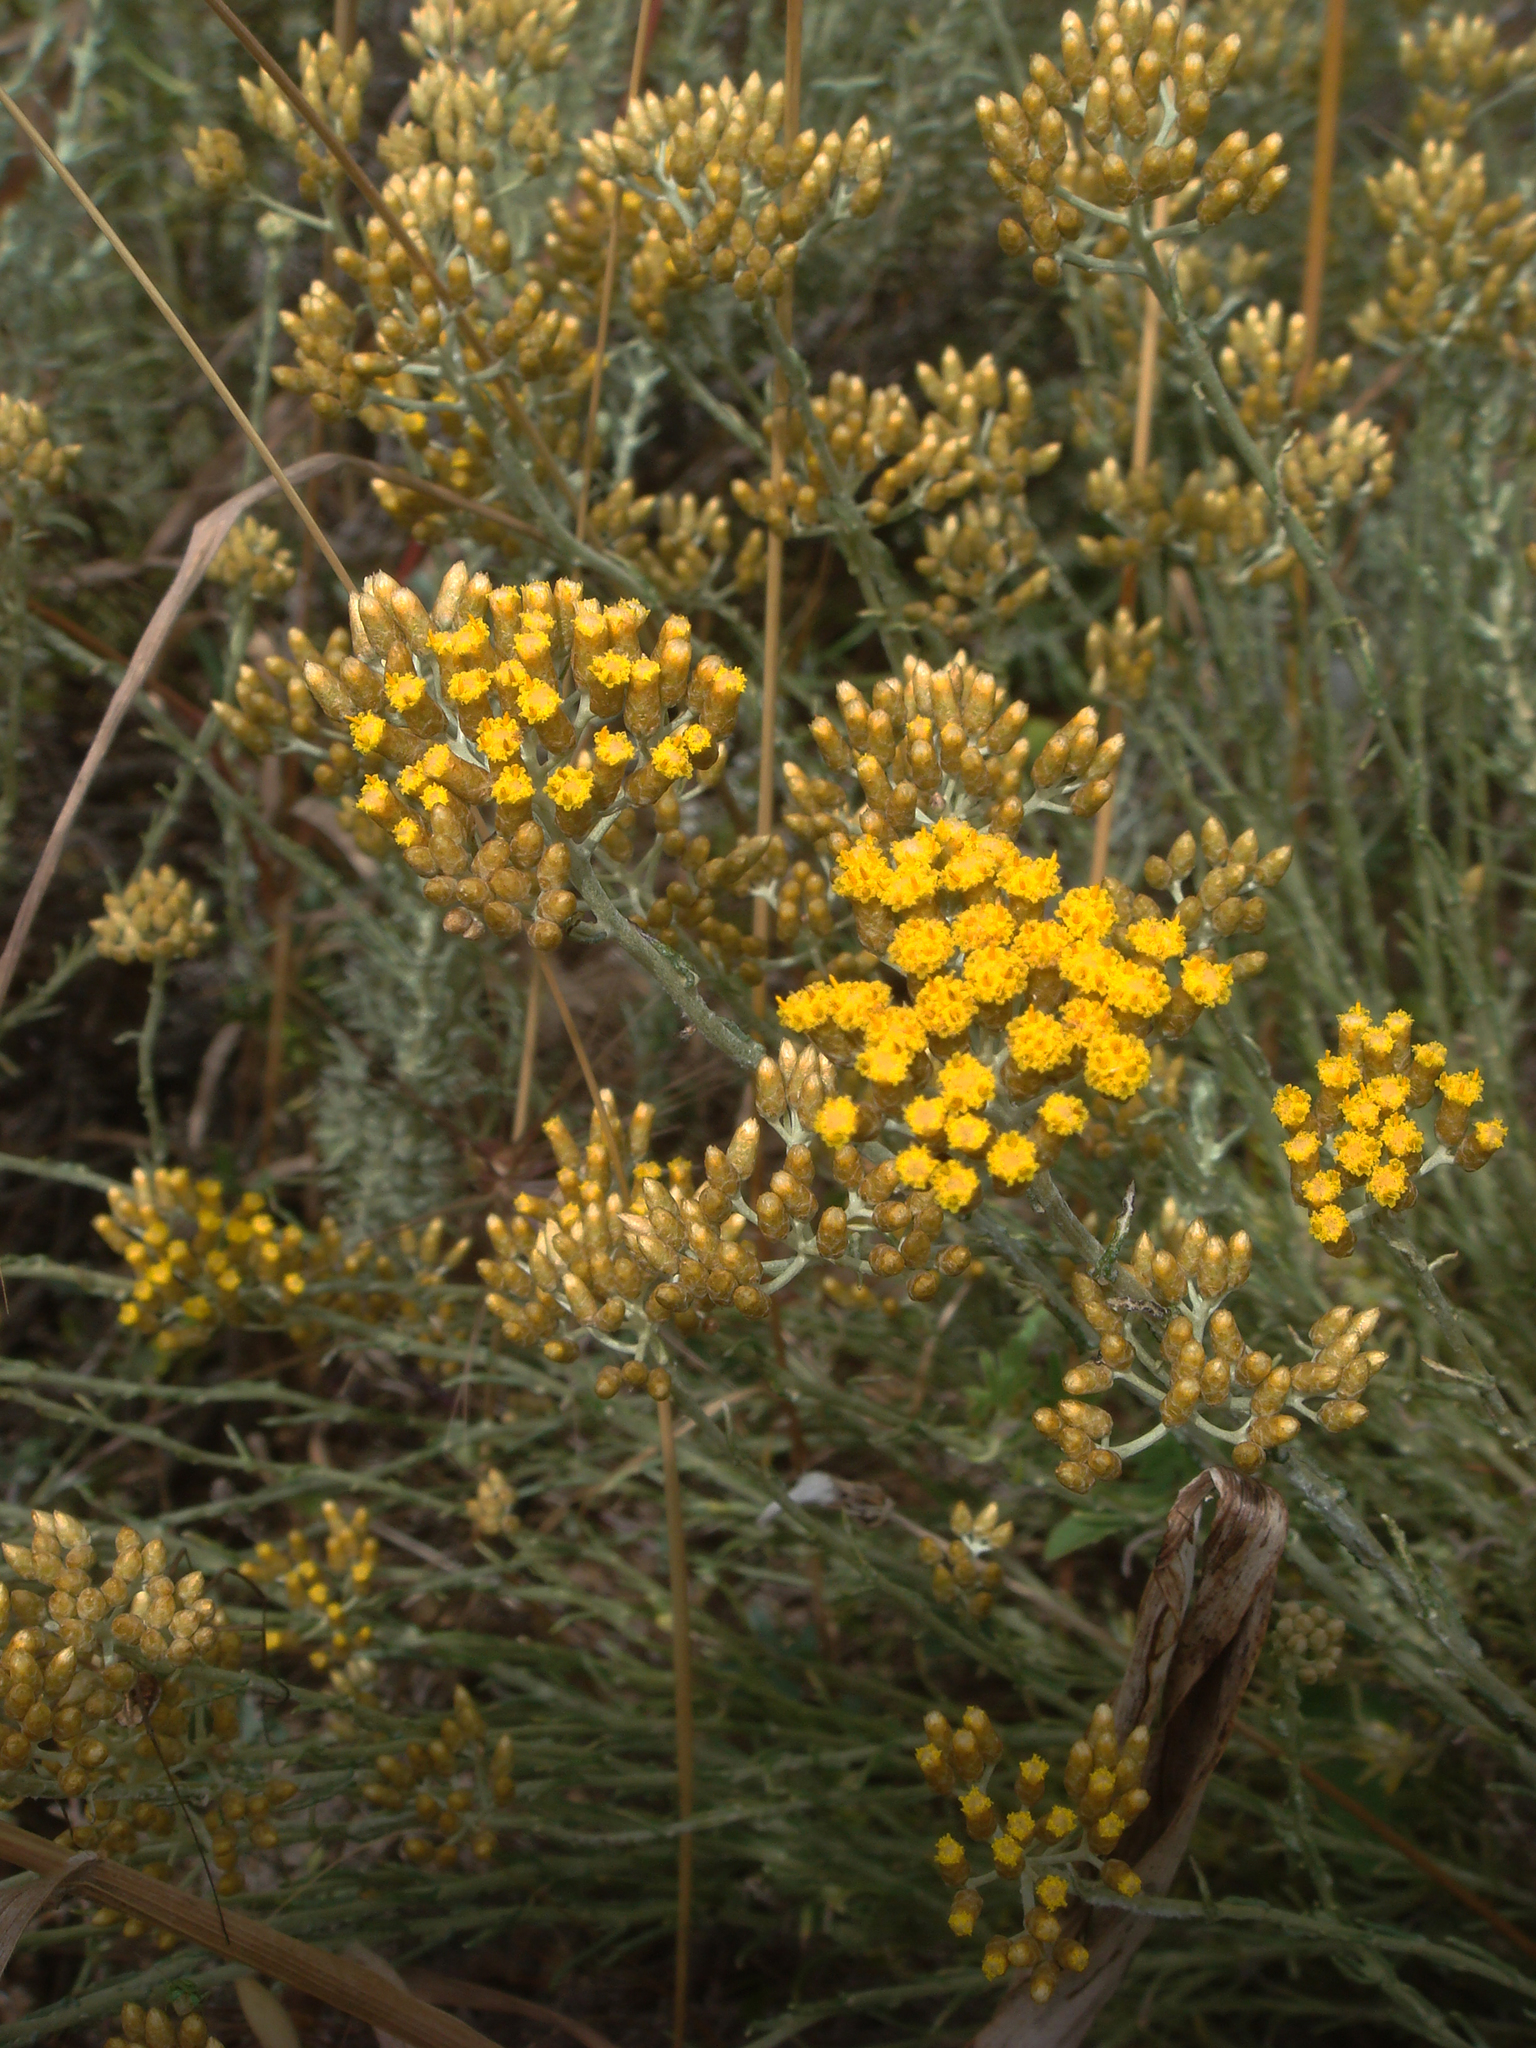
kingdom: Plantae
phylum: Tracheophyta
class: Magnoliopsida
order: Asterales
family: Asteraceae
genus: Helichrysum
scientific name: Helichrysum italicum
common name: Curryplant
